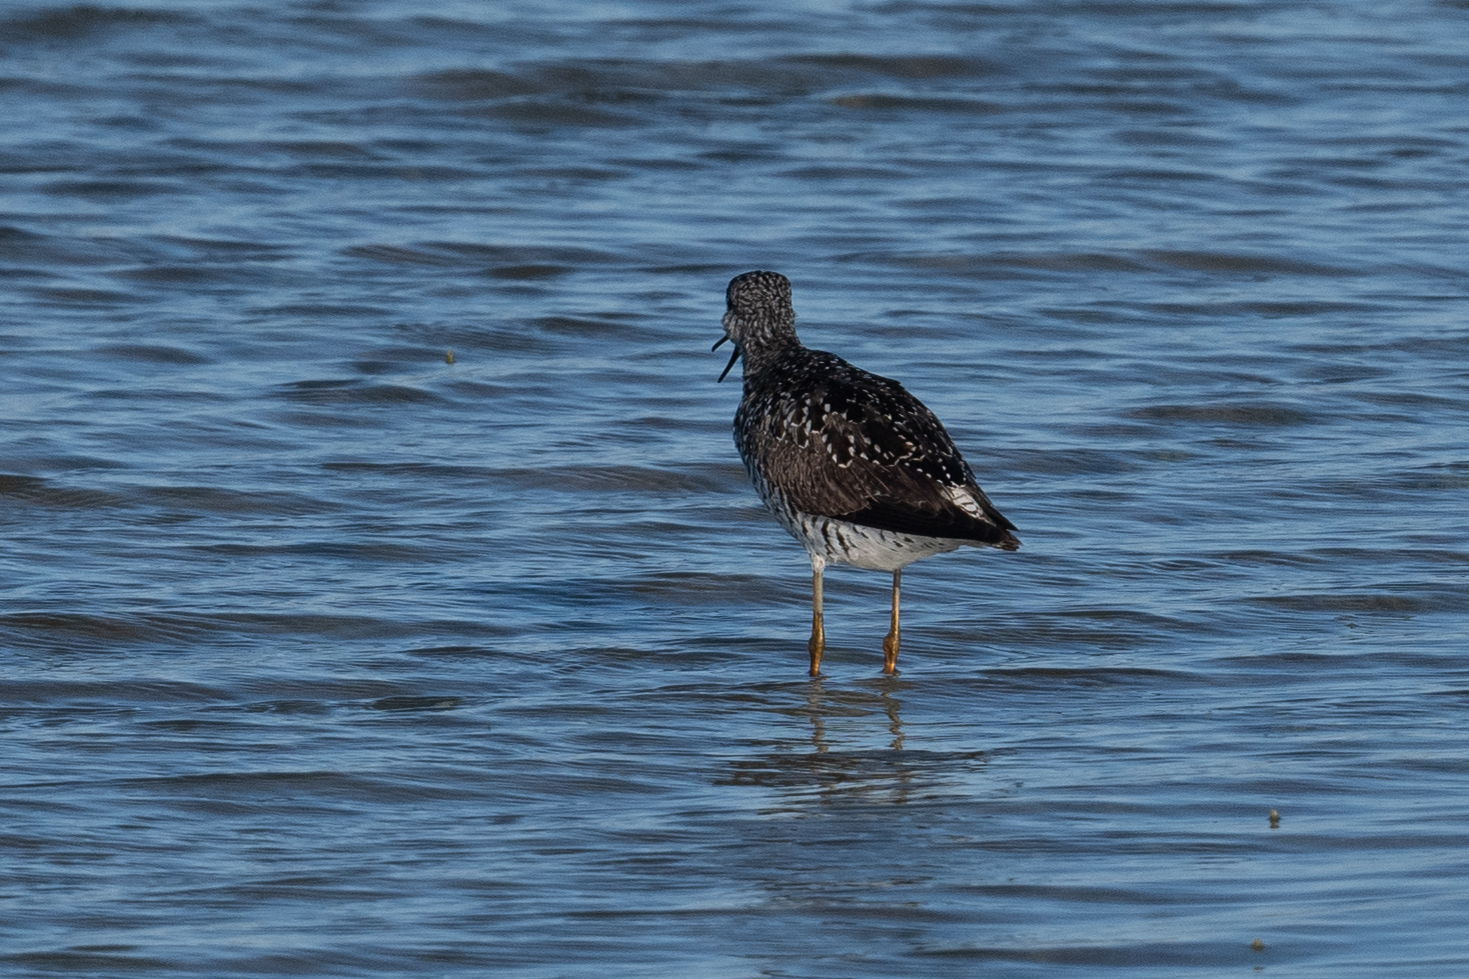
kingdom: Animalia
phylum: Chordata
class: Aves
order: Charadriiformes
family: Scolopacidae
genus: Tringa
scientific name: Tringa melanoleuca
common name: Greater yellowlegs
